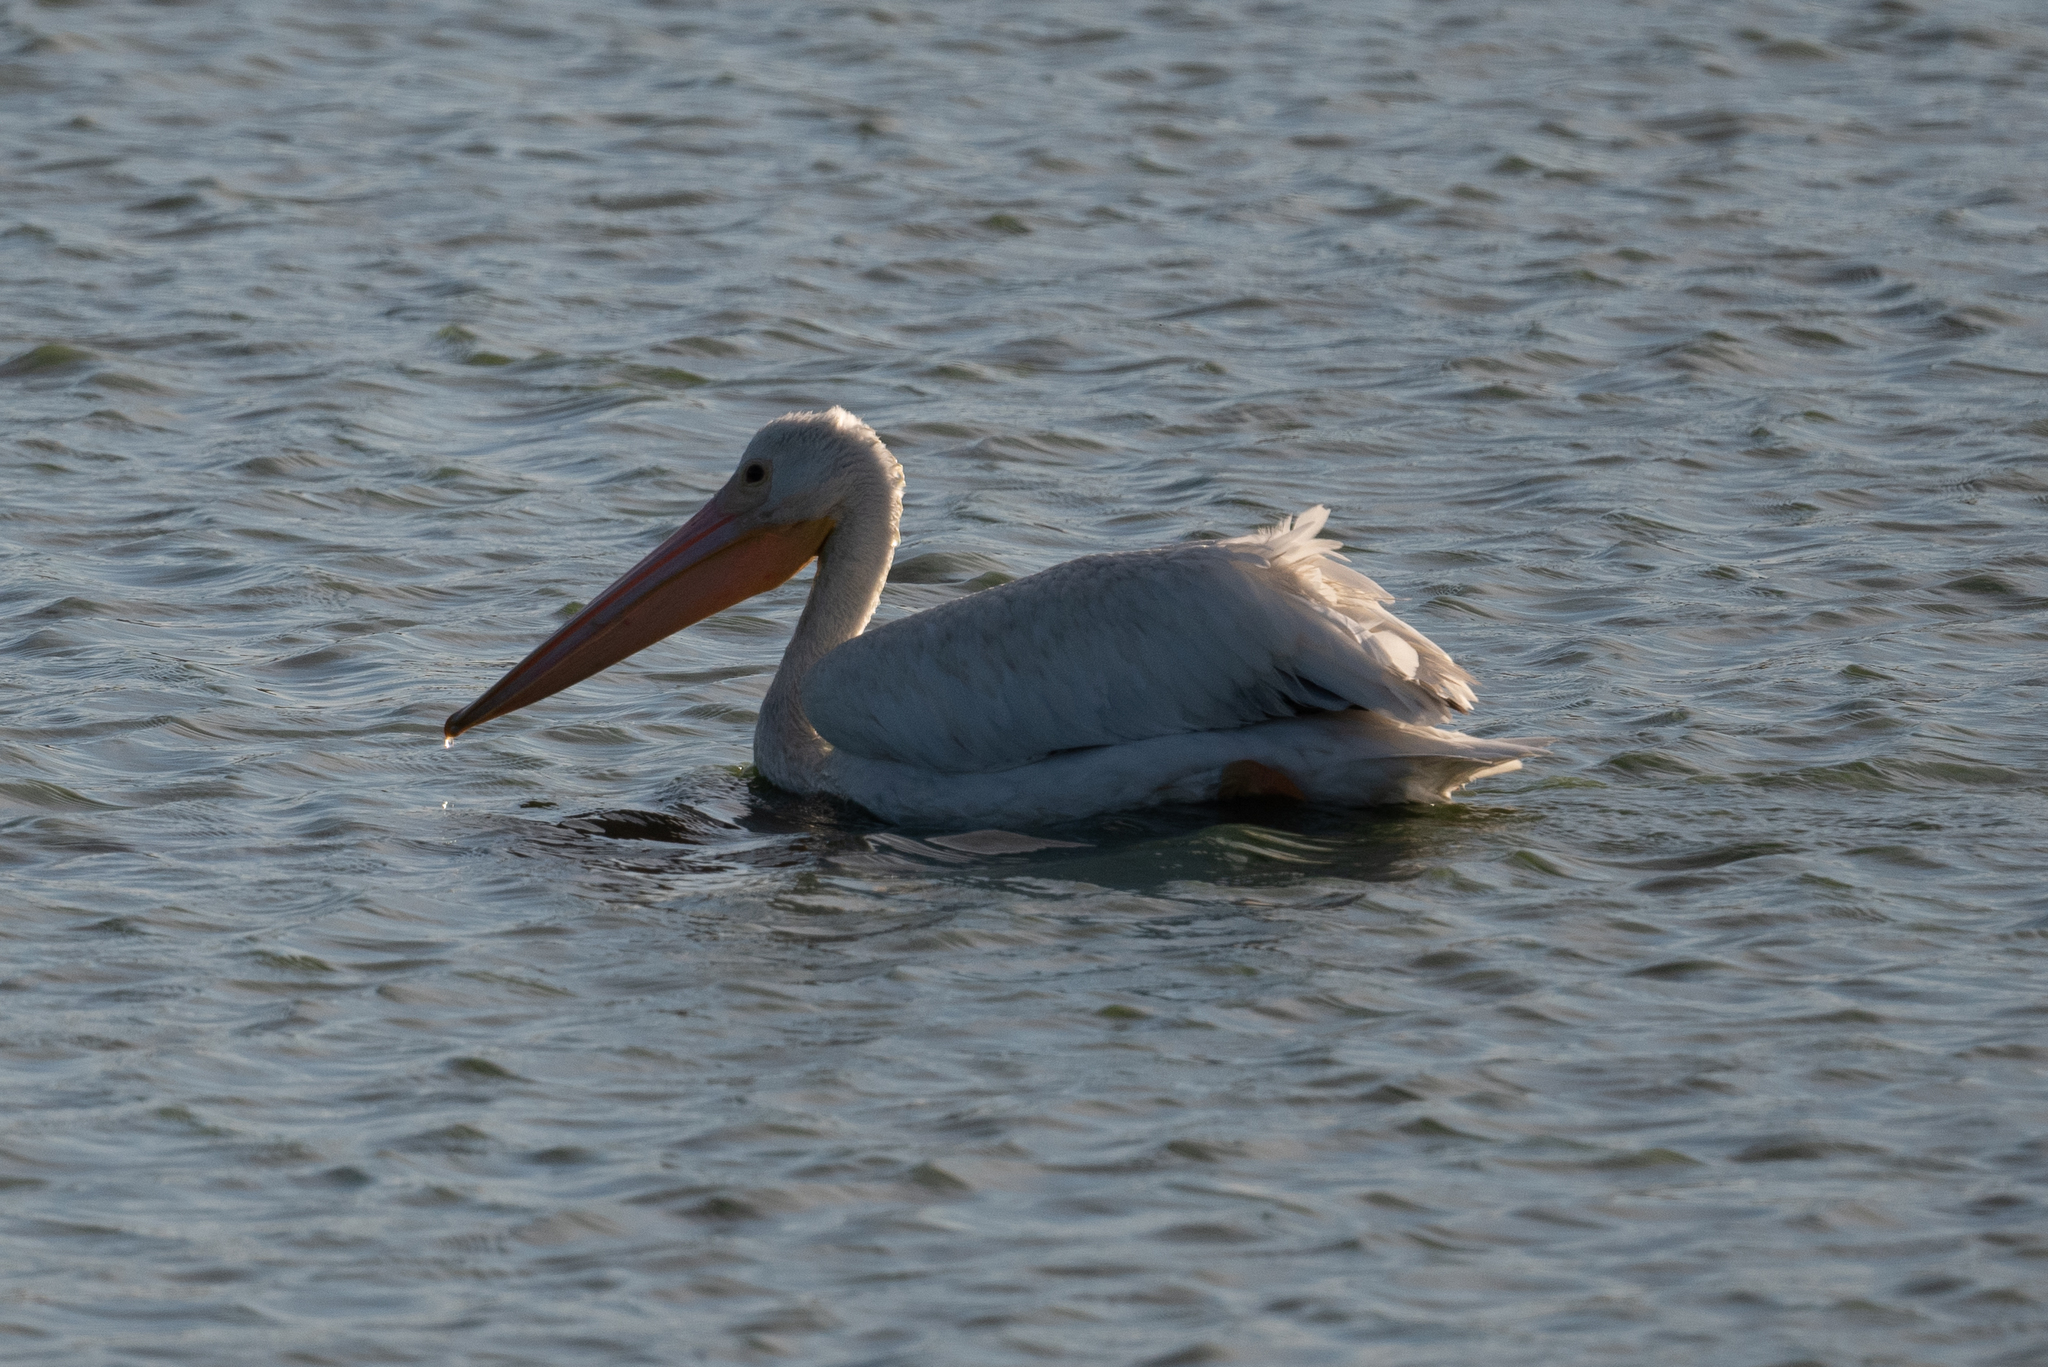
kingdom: Animalia
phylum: Chordata
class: Aves
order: Pelecaniformes
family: Pelecanidae
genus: Pelecanus
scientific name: Pelecanus erythrorhynchos
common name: American white pelican
